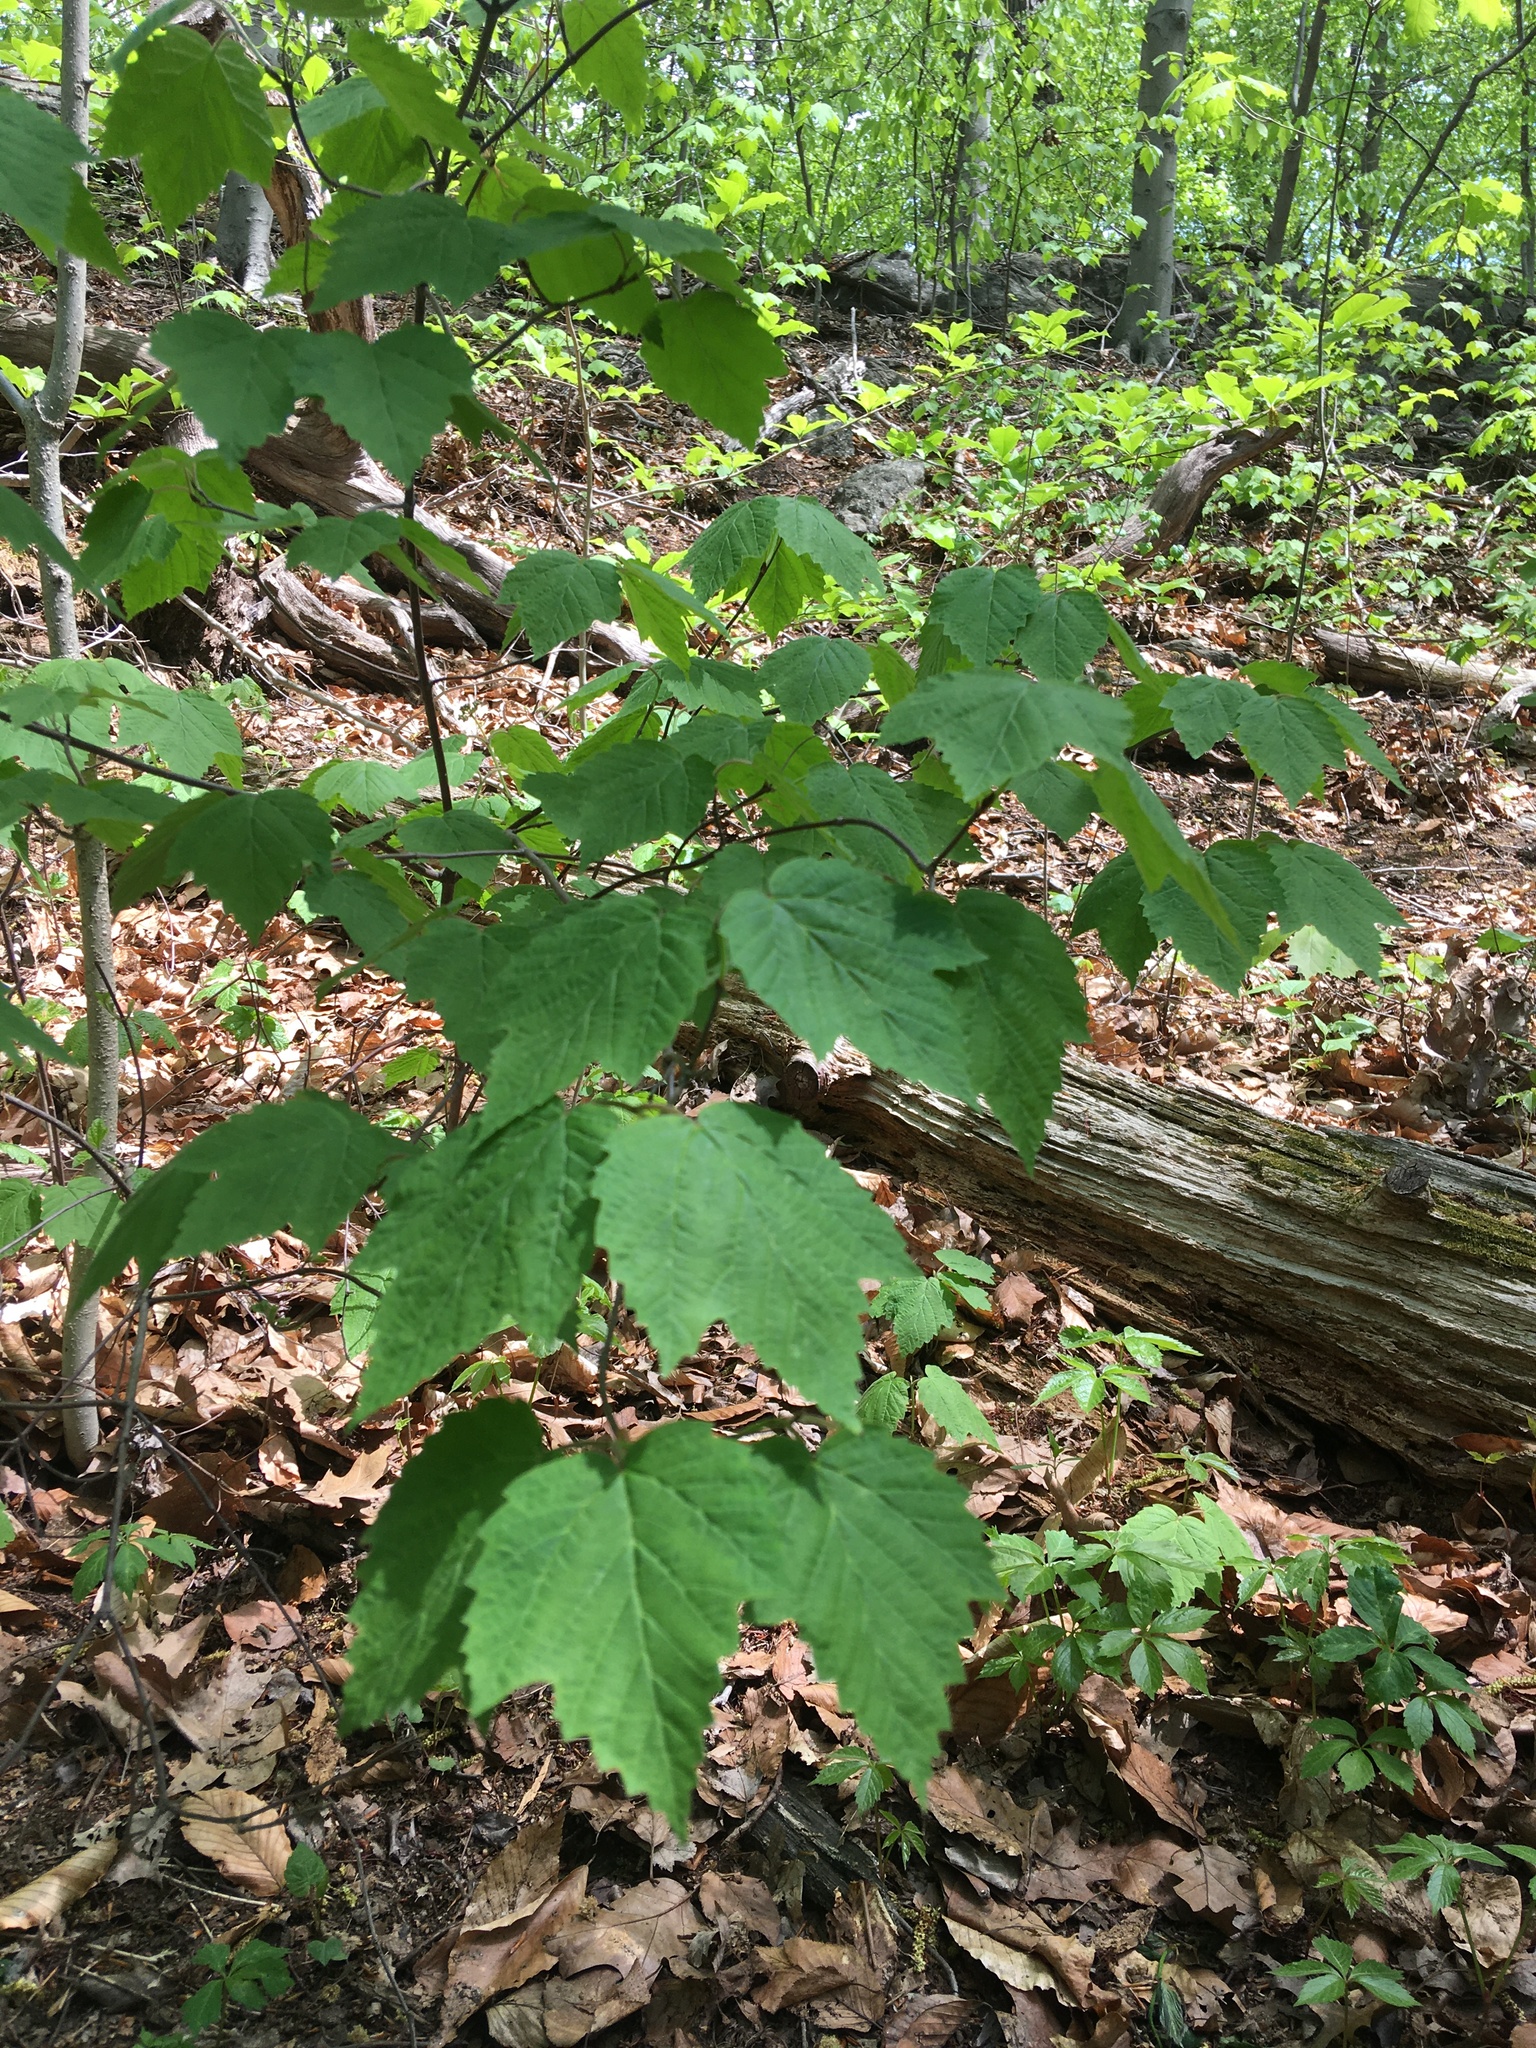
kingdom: Plantae
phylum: Tracheophyta
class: Magnoliopsida
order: Dipsacales
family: Viburnaceae
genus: Viburnum
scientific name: Viburnum acerifolium
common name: Dockmackie
